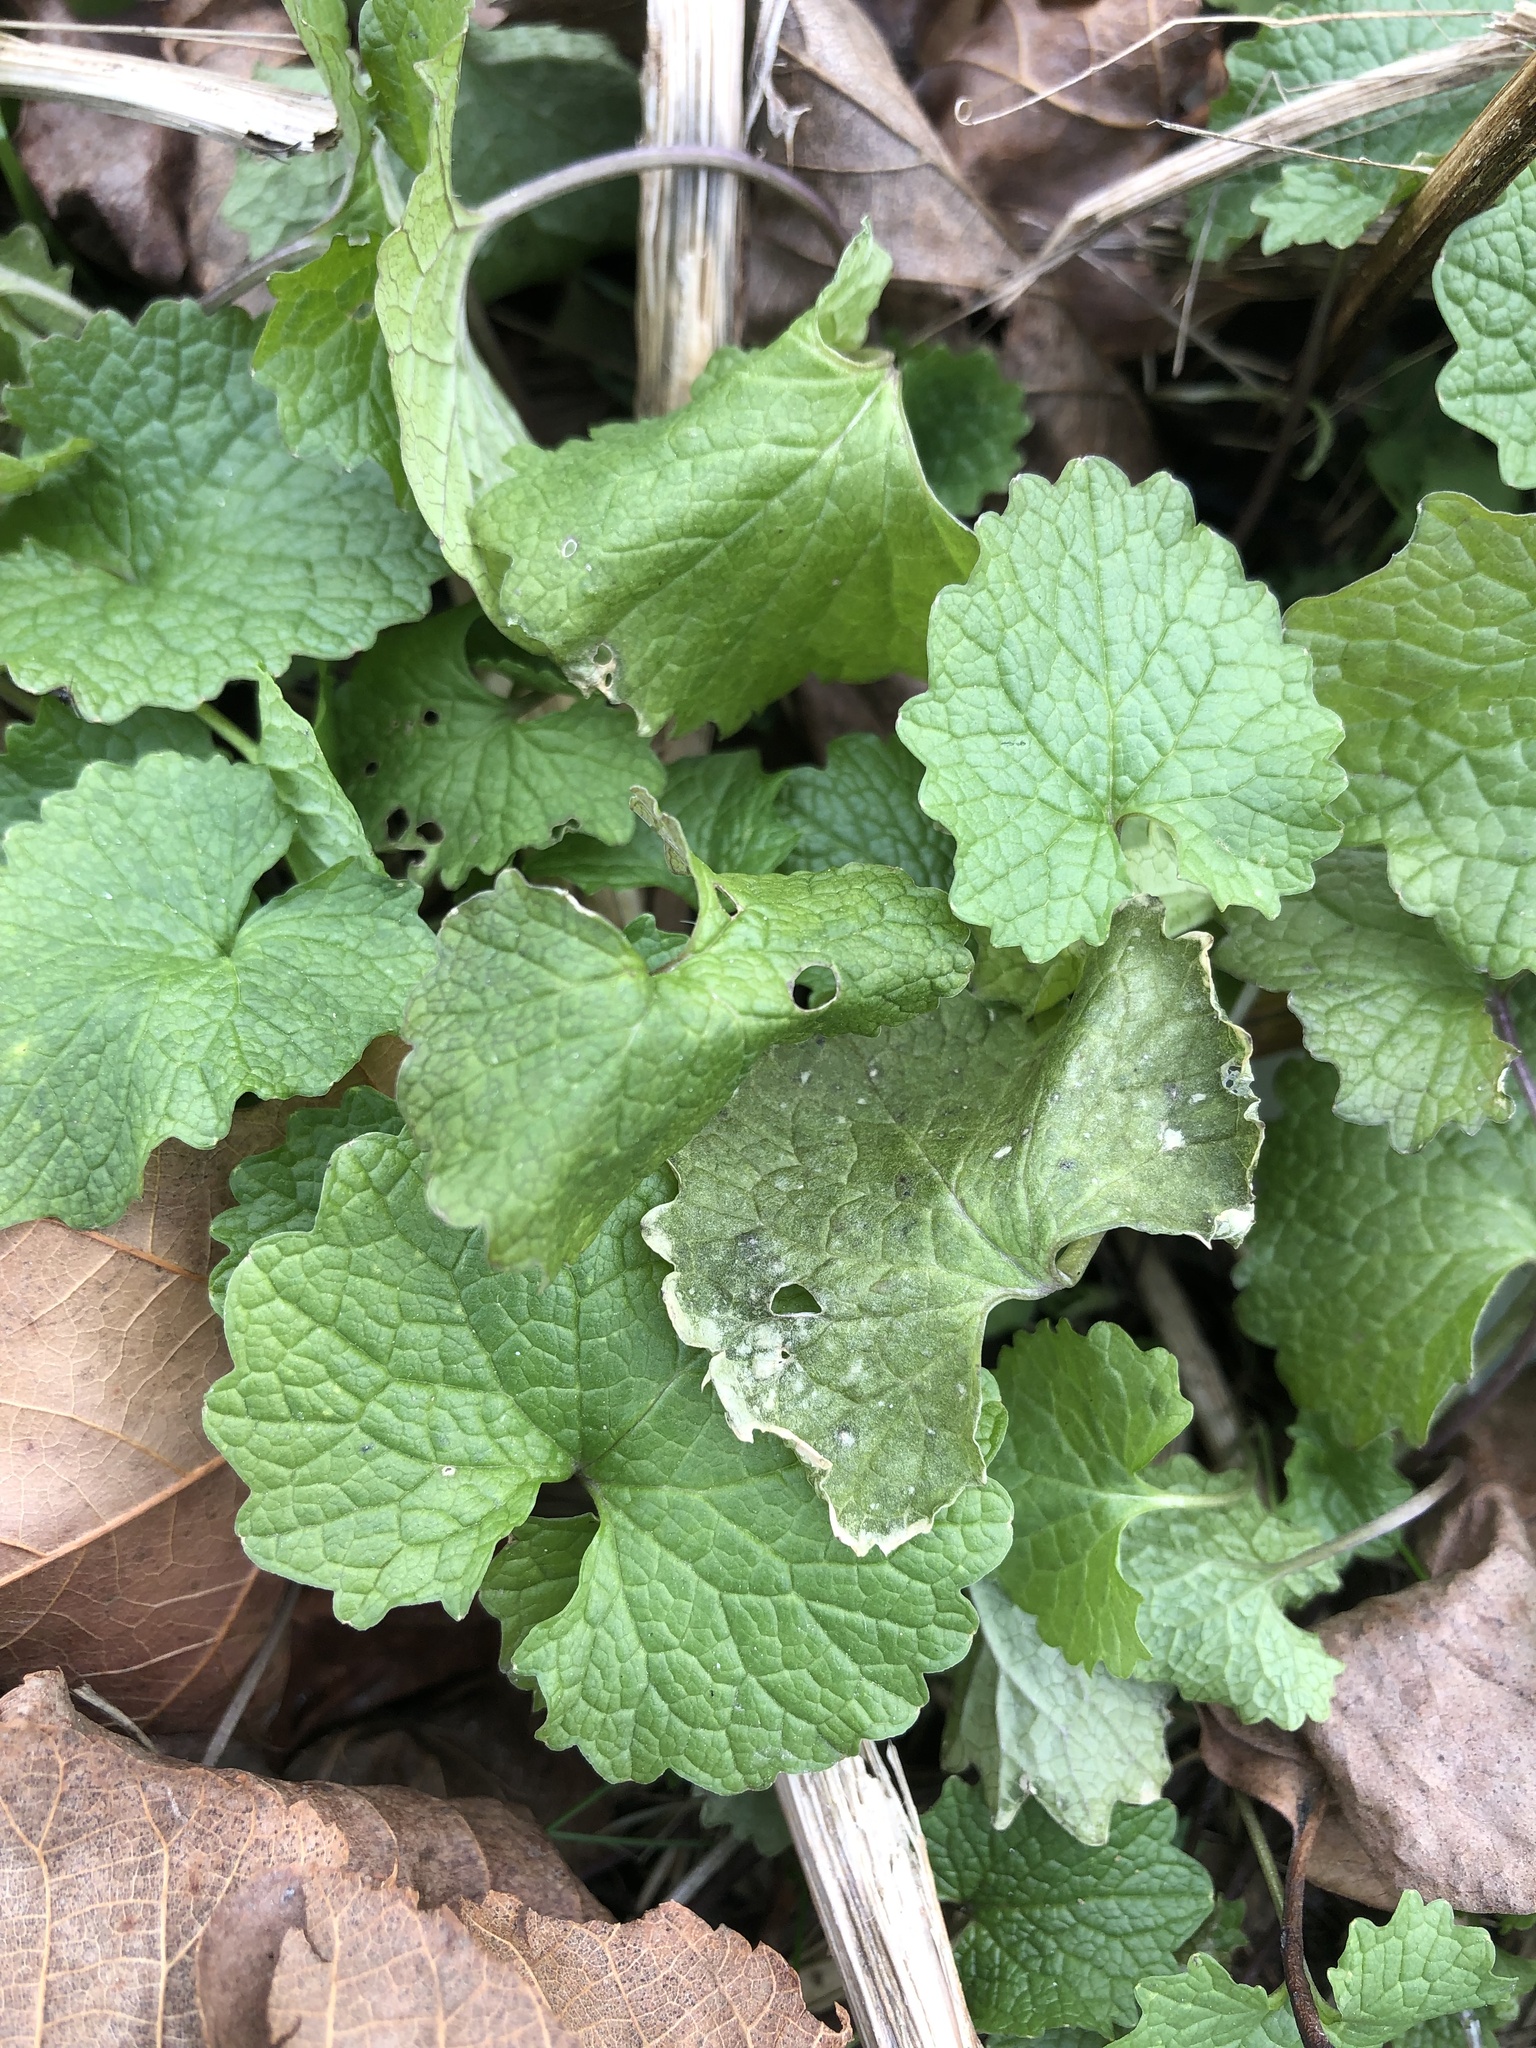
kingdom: Plantae
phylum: Tracheophyta
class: Magnoliopsida
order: Brassicales
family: Brassicaceae
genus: Alliaria
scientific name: Alliaria petiolata
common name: Garlic mustard
